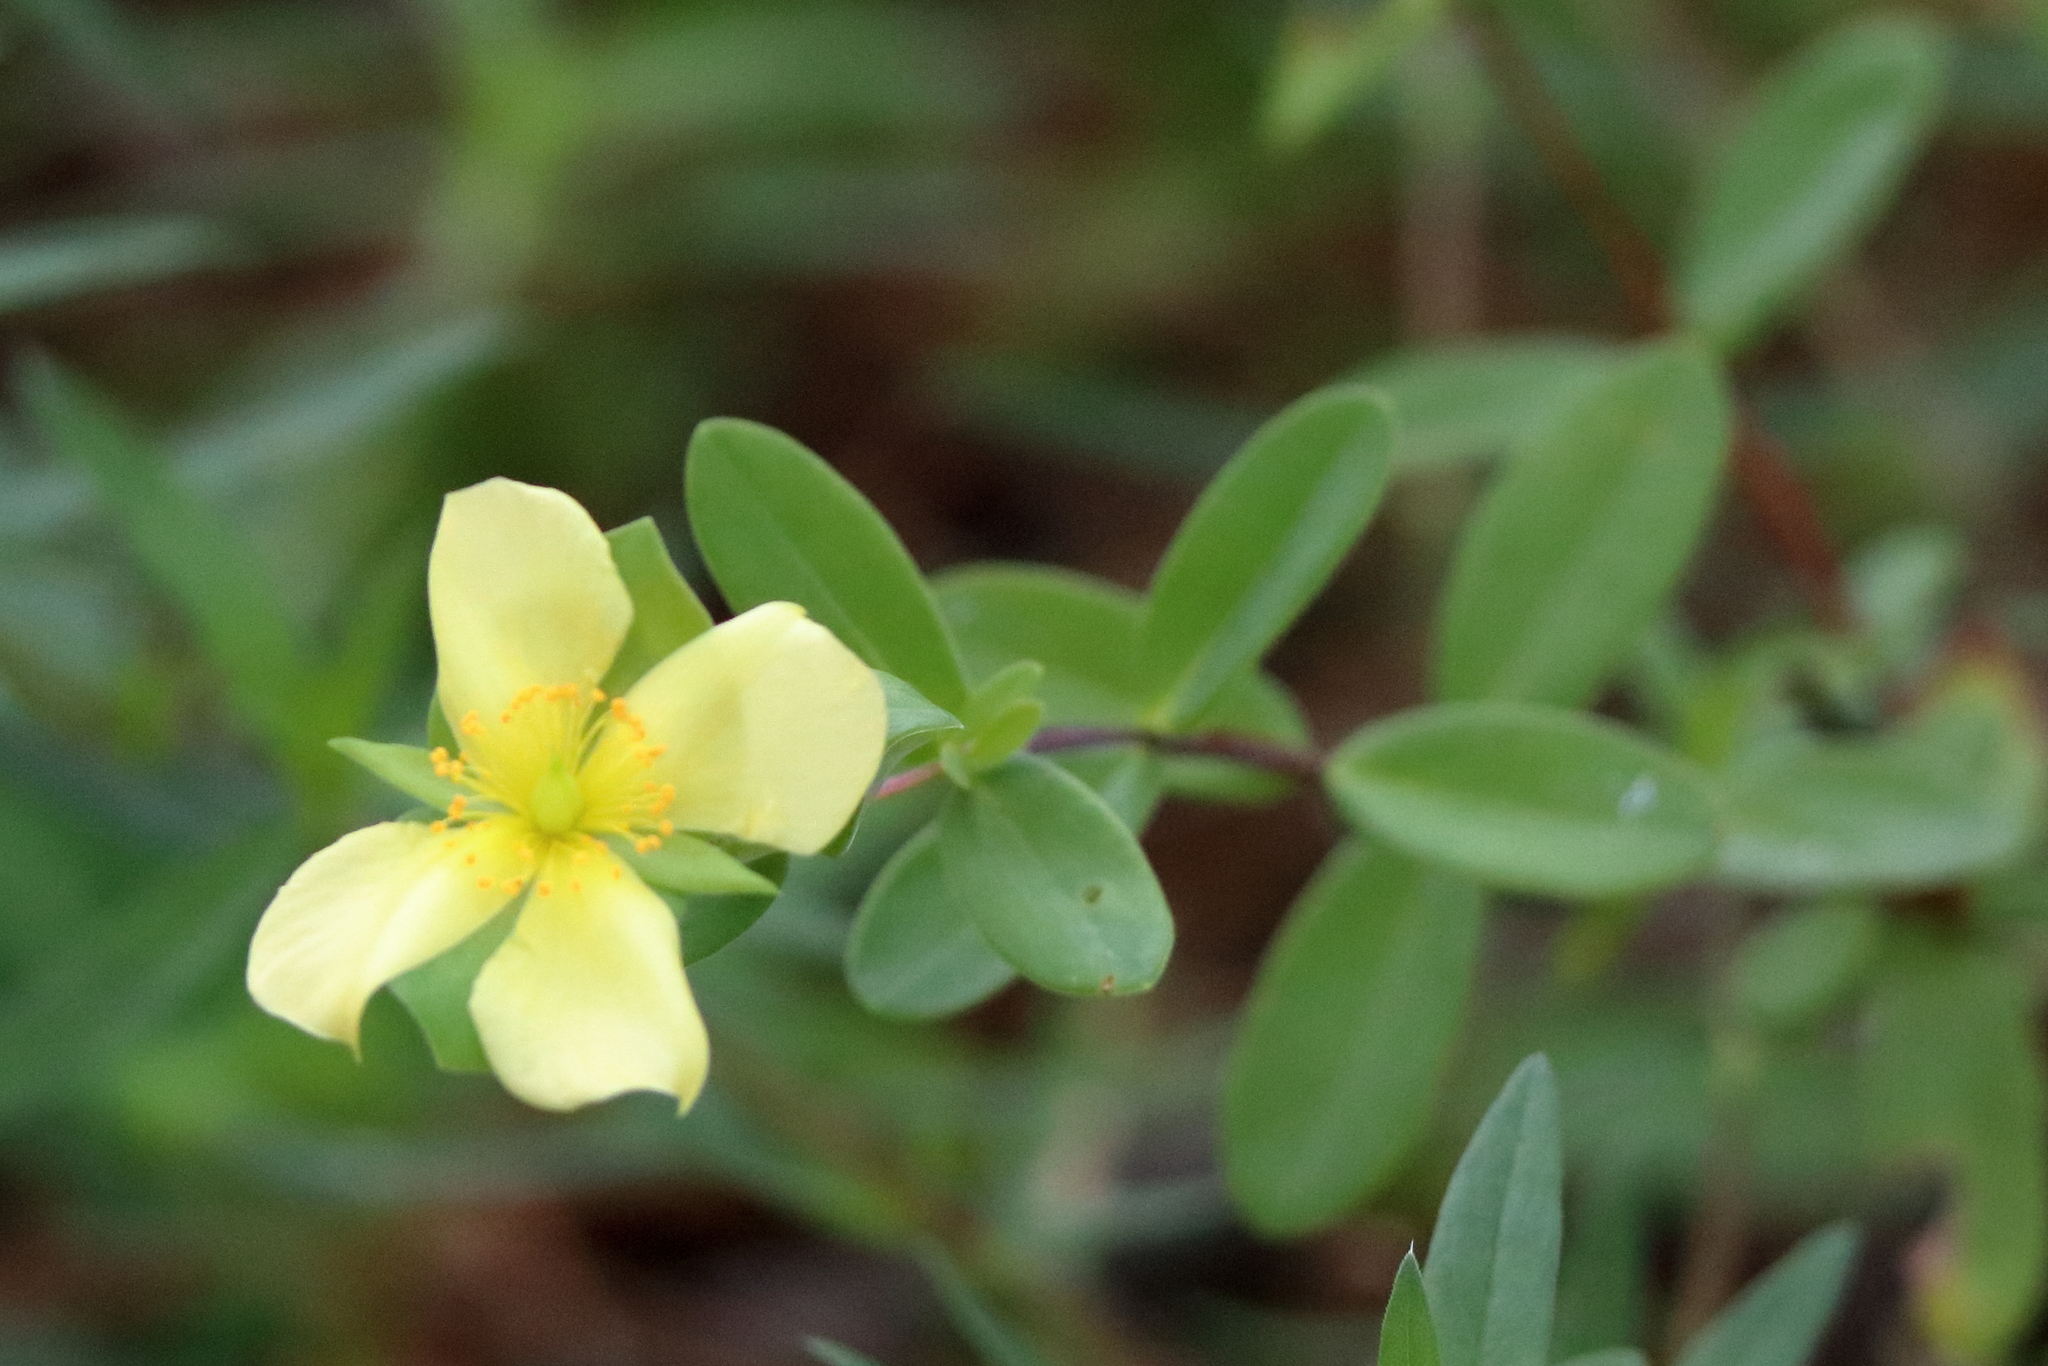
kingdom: Plantae
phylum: Tracheophyta
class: Magnoliopsida
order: Malpighiales
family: Hypericaceae
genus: Hypericum
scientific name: Hypericum crux-andreae
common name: St.-peter's-wort
